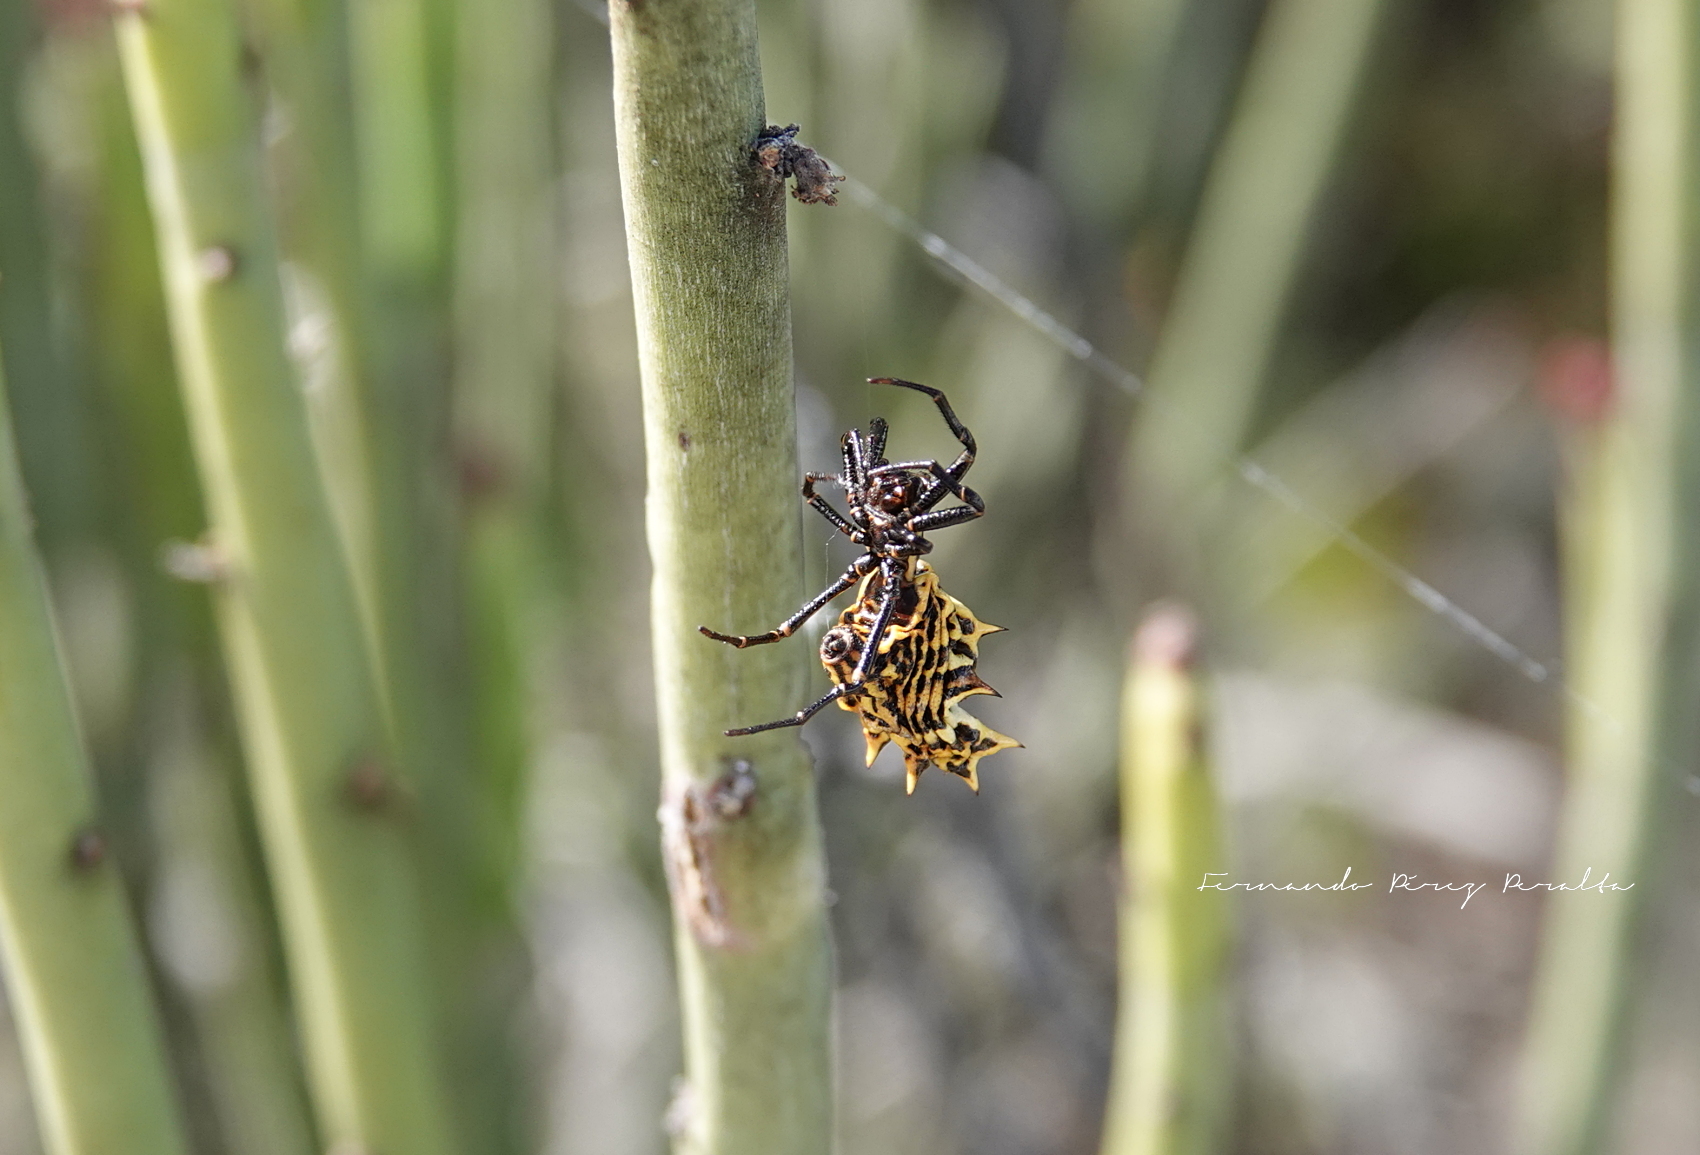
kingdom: Animalia
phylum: Arthropoda
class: Arachnida
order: Araneae
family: Araneidae
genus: Micrathena
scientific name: Micrathena gracilis
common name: Orb weavers
